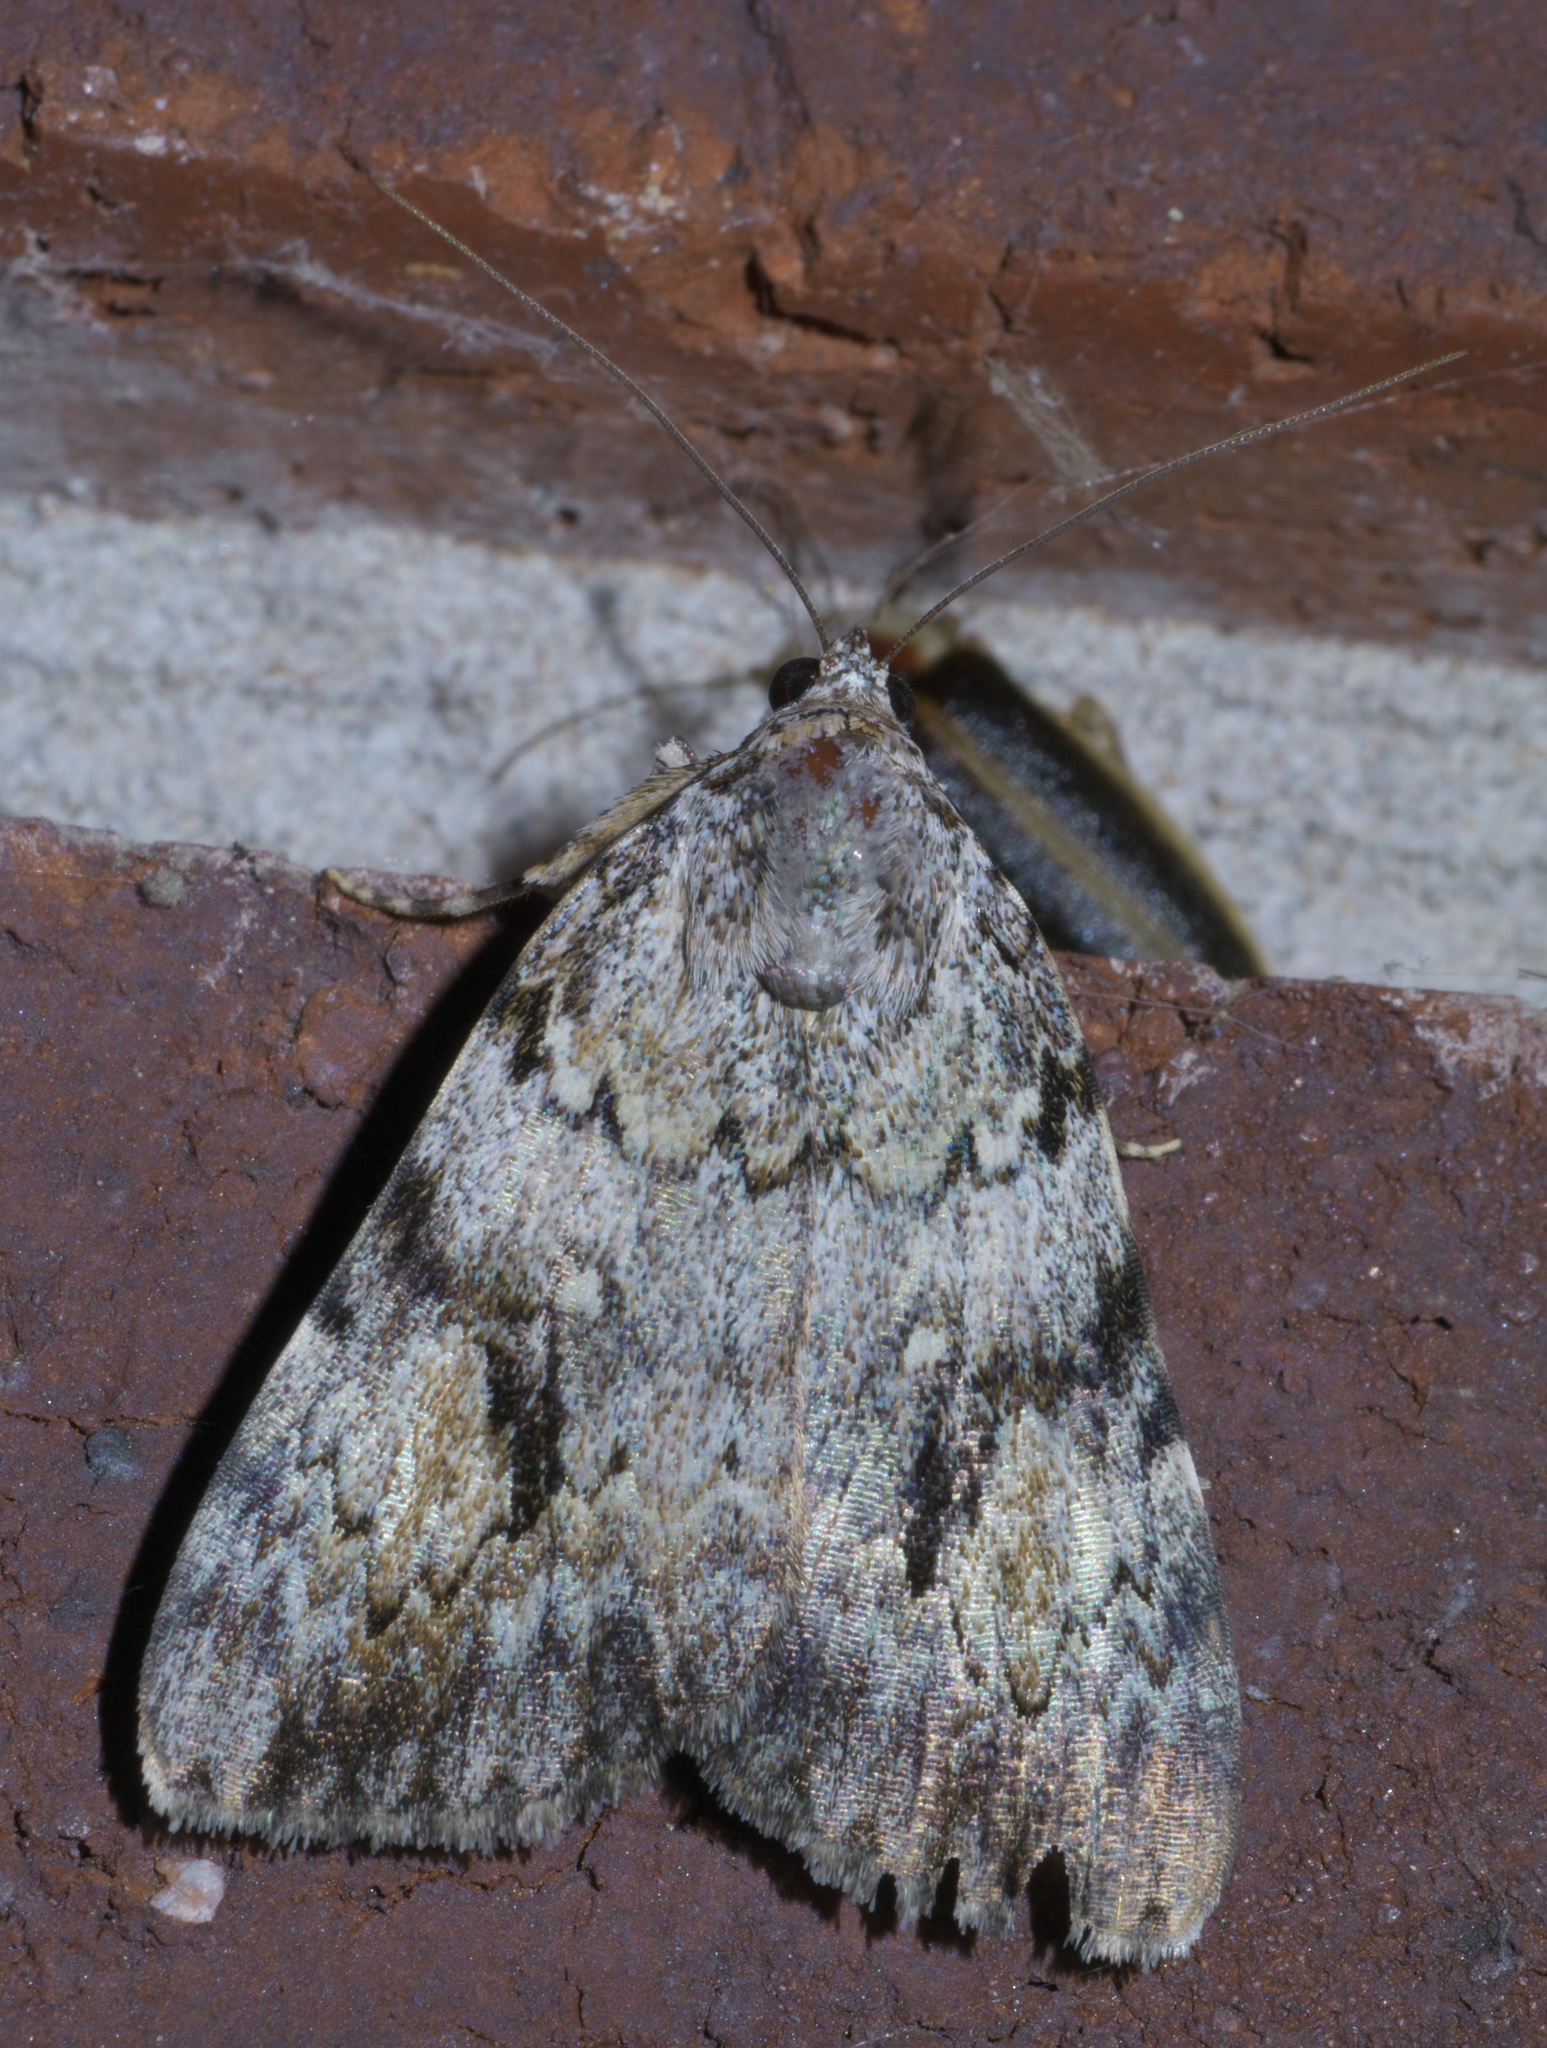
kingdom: Animalia
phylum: Arthropoda
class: Insecta
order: Lepidoptera
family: Erebidae
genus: Catocala
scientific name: Catocala amica
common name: Girlfriend underwing
